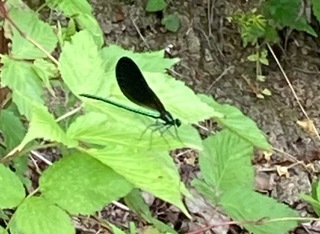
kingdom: Animalia
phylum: Arthropoda
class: Insecta
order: Odonata
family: Calopterygidae
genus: Calopteryx
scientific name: Calopteryx maculata
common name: Ebony jewelwing
